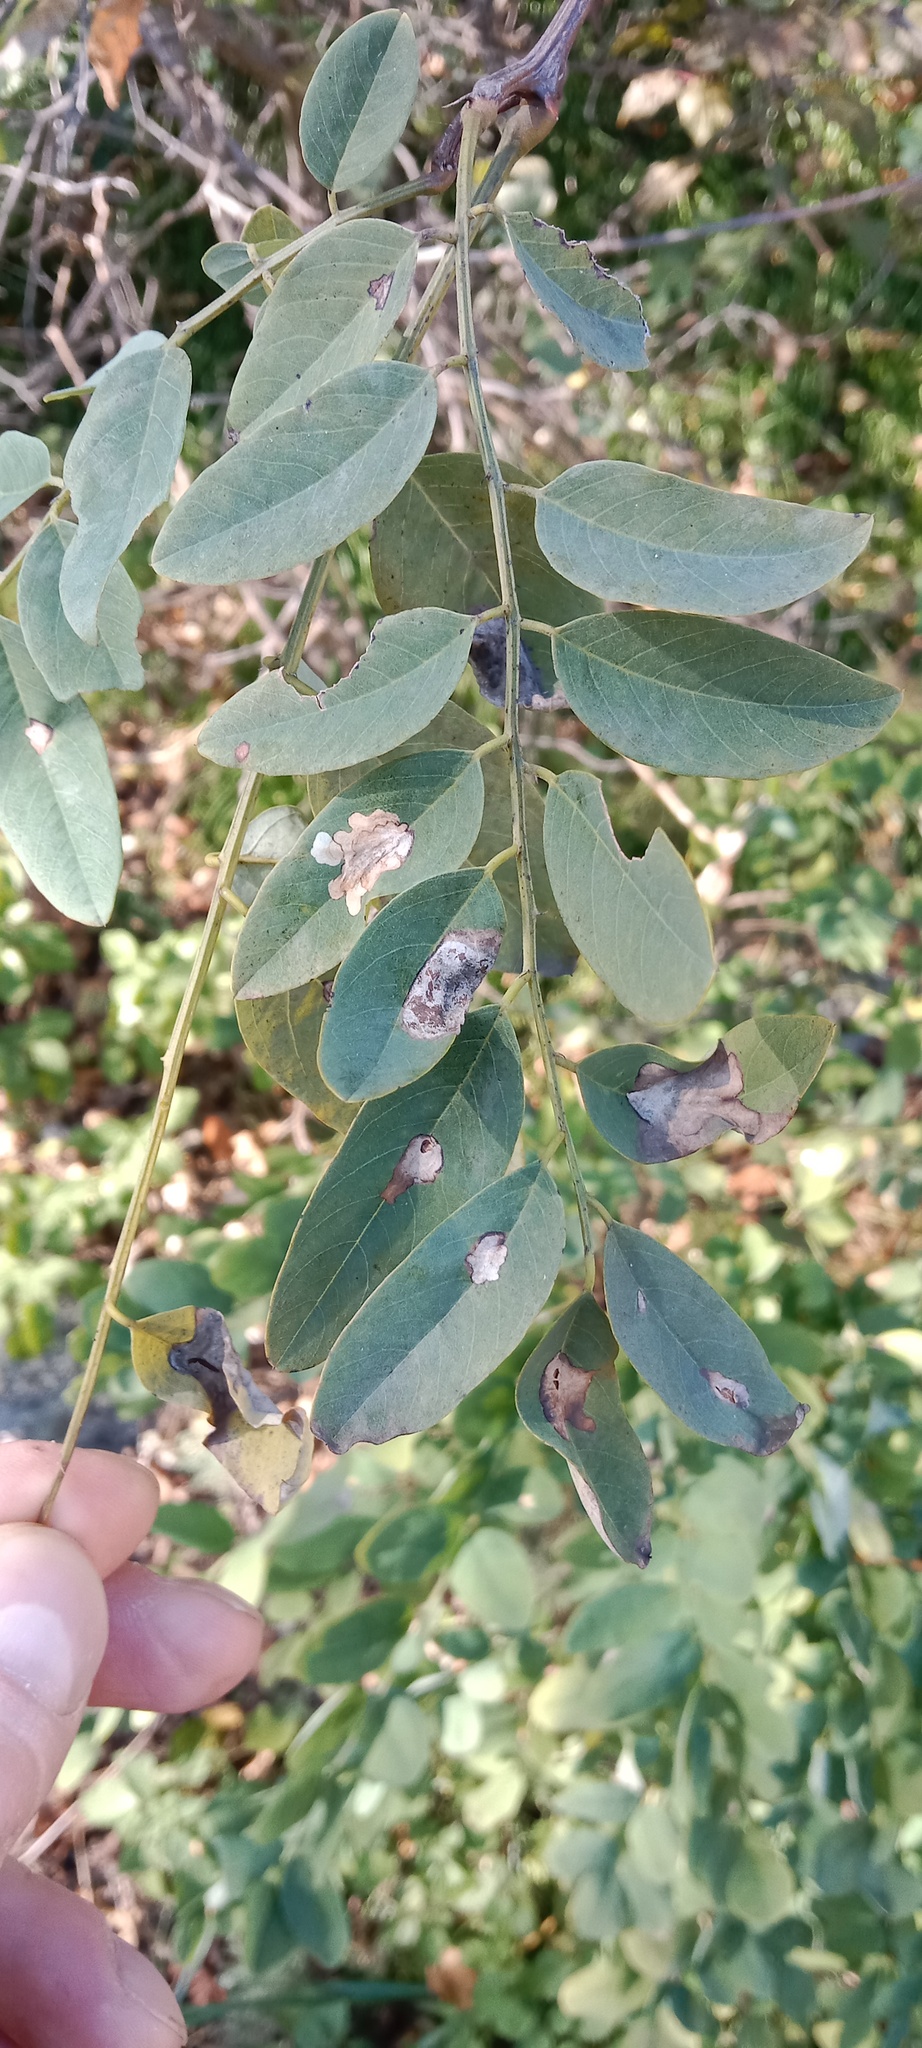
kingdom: Plantae
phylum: Tracheophyta
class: Magnoliopsida
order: Fabales
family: Fabaceae
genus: Robinia
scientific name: Robinia pseudoacacia
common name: Black locust
